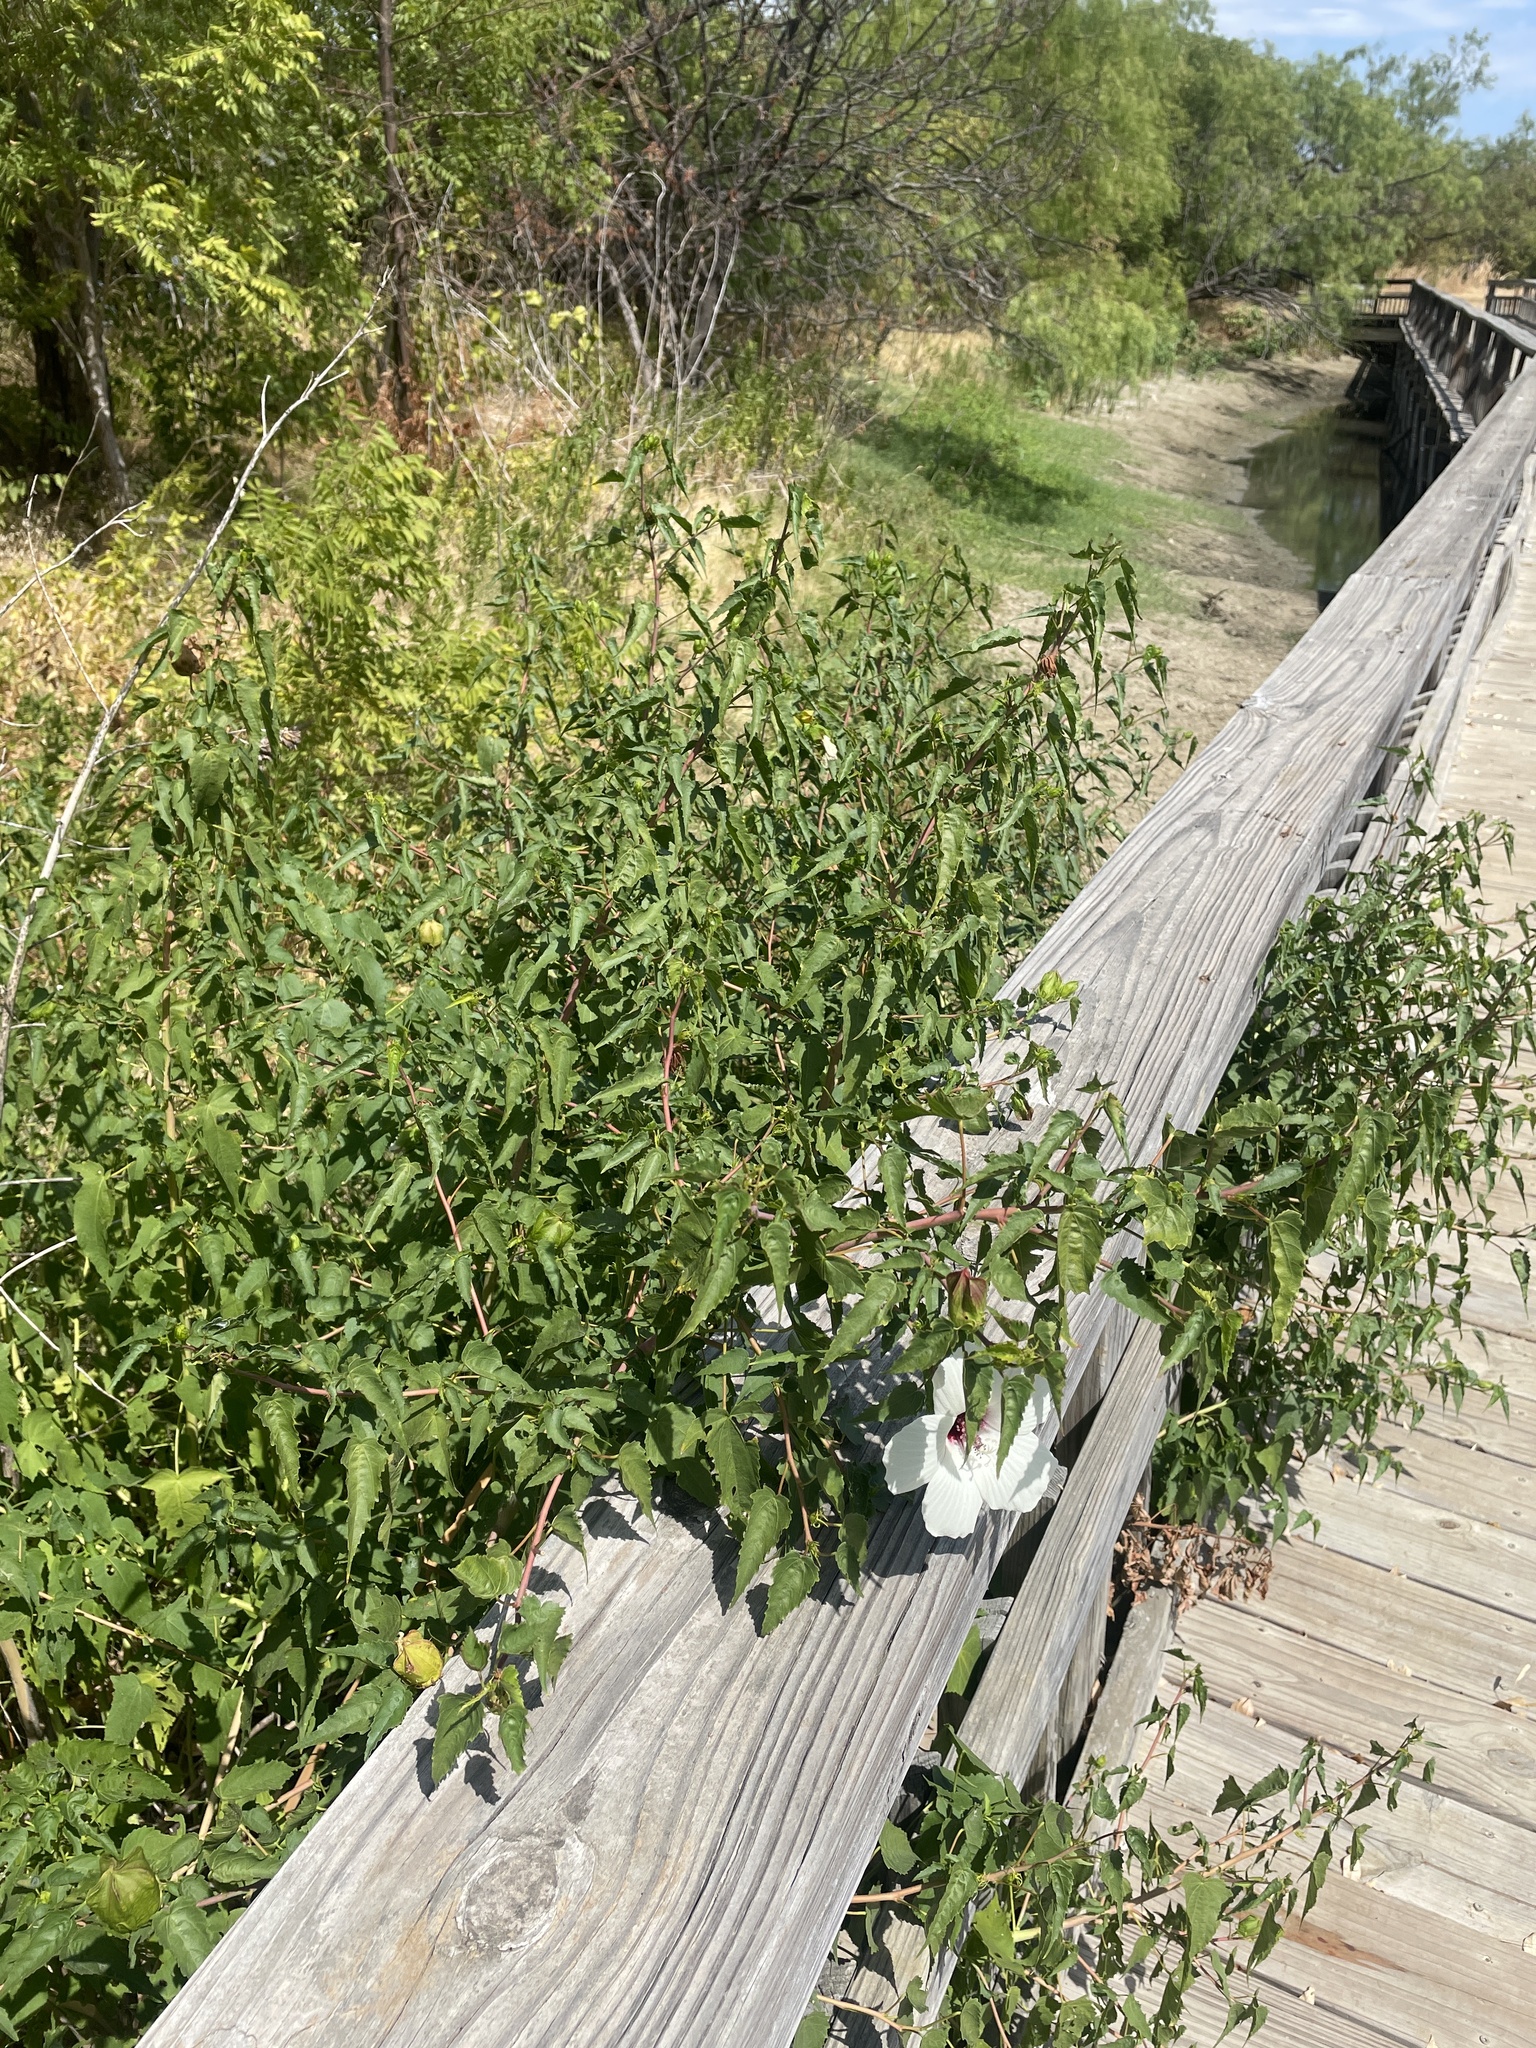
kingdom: Plantae
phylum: Tracheophyta
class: Magnoliopsida
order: Malvales
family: Malvaceae
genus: Hibiscus
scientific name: Hibiscus laevis
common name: Scarlet rose-mallow
